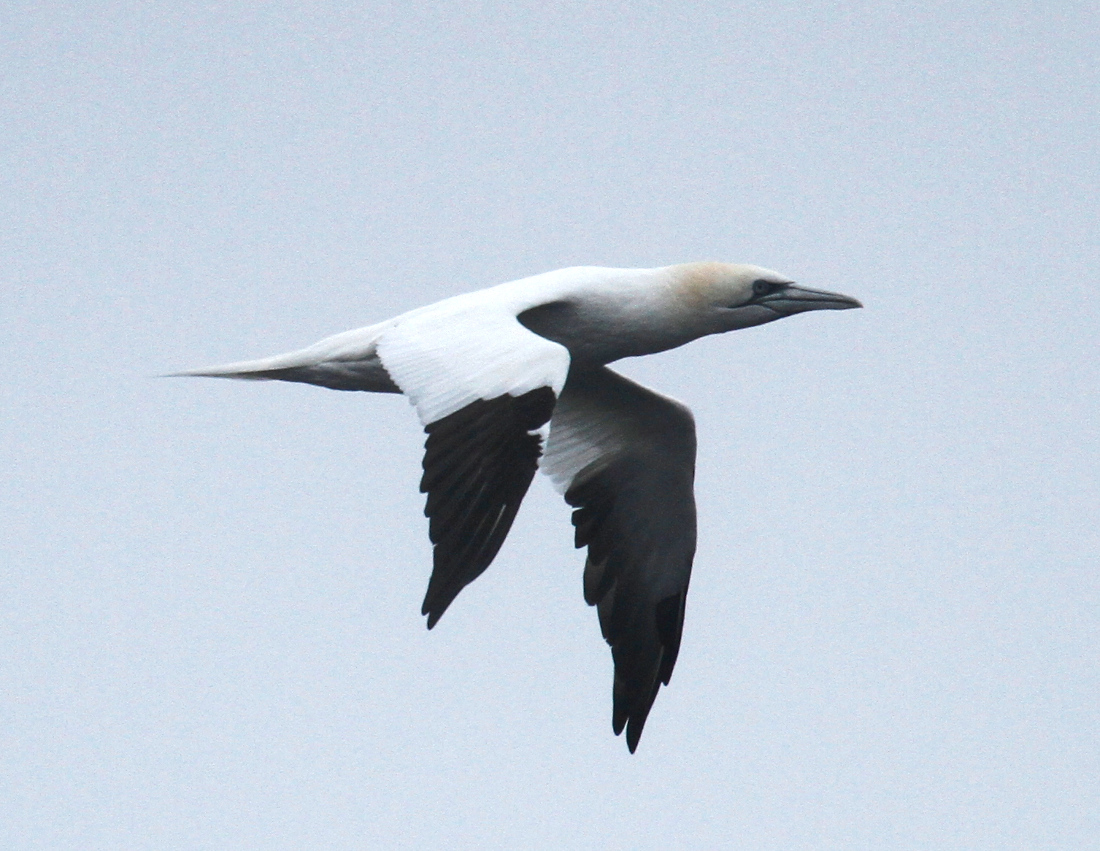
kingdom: Animalia
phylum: Chordata
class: Aves
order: Suliformes
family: Sulidae
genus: Morus
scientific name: Morus bassanus
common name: Northern gannet
